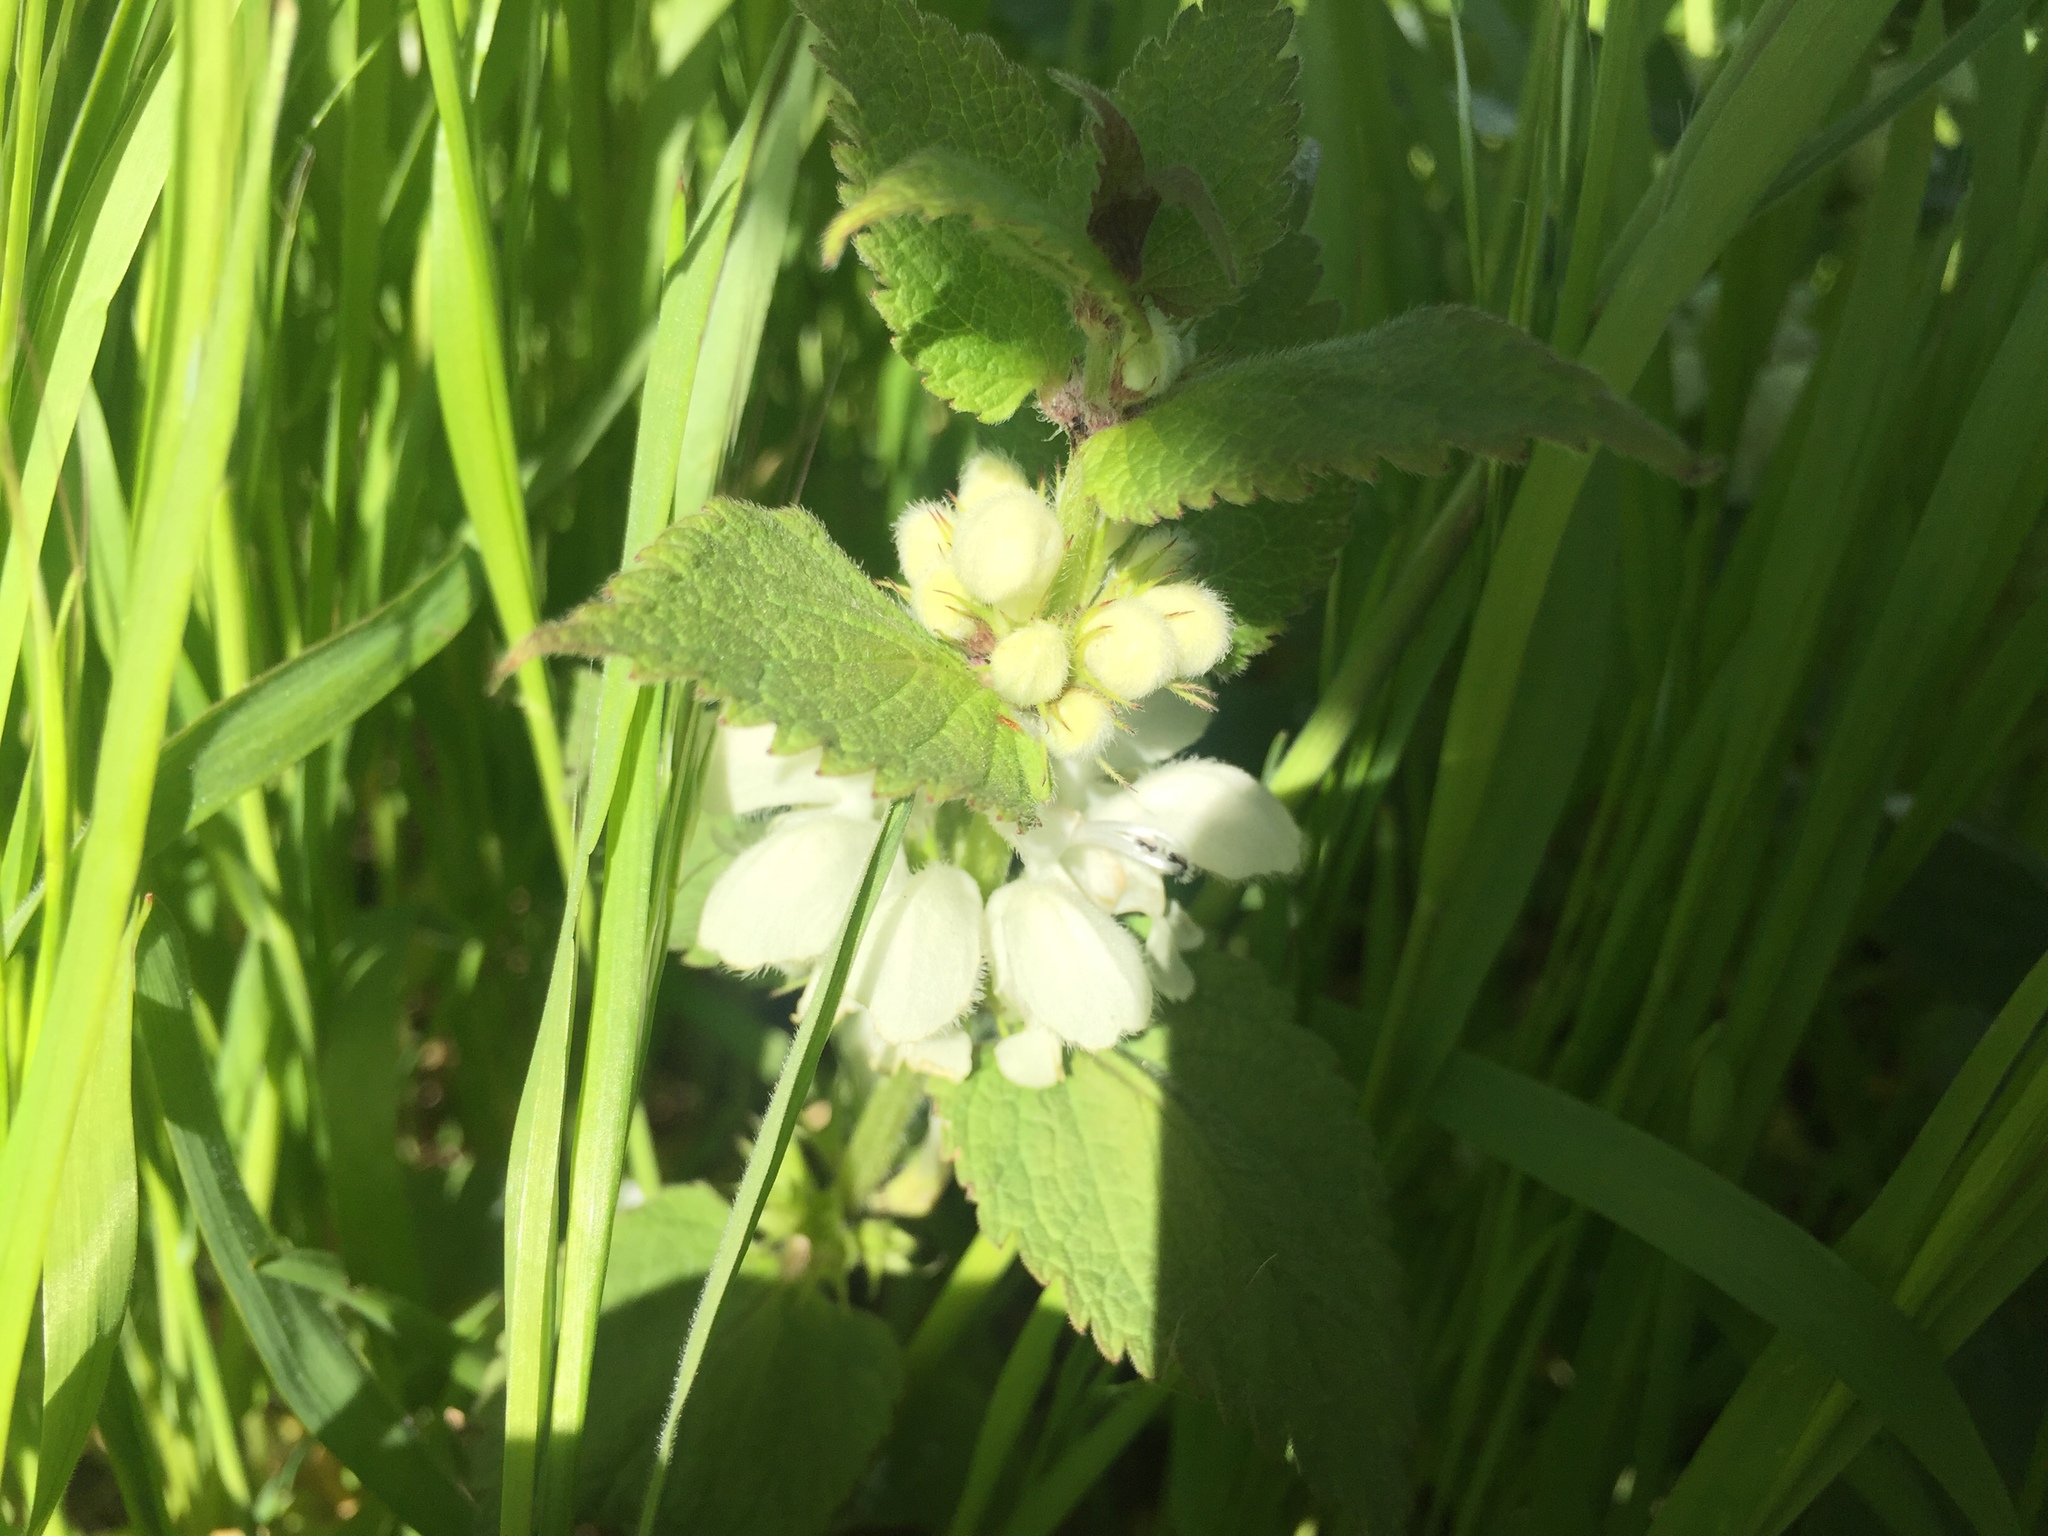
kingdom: Plantae
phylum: Tracheophyta
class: Magnoliopsida
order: Lamiales
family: Lamiaceae
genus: Lamium
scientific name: Lamium album
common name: White dead-nettle
